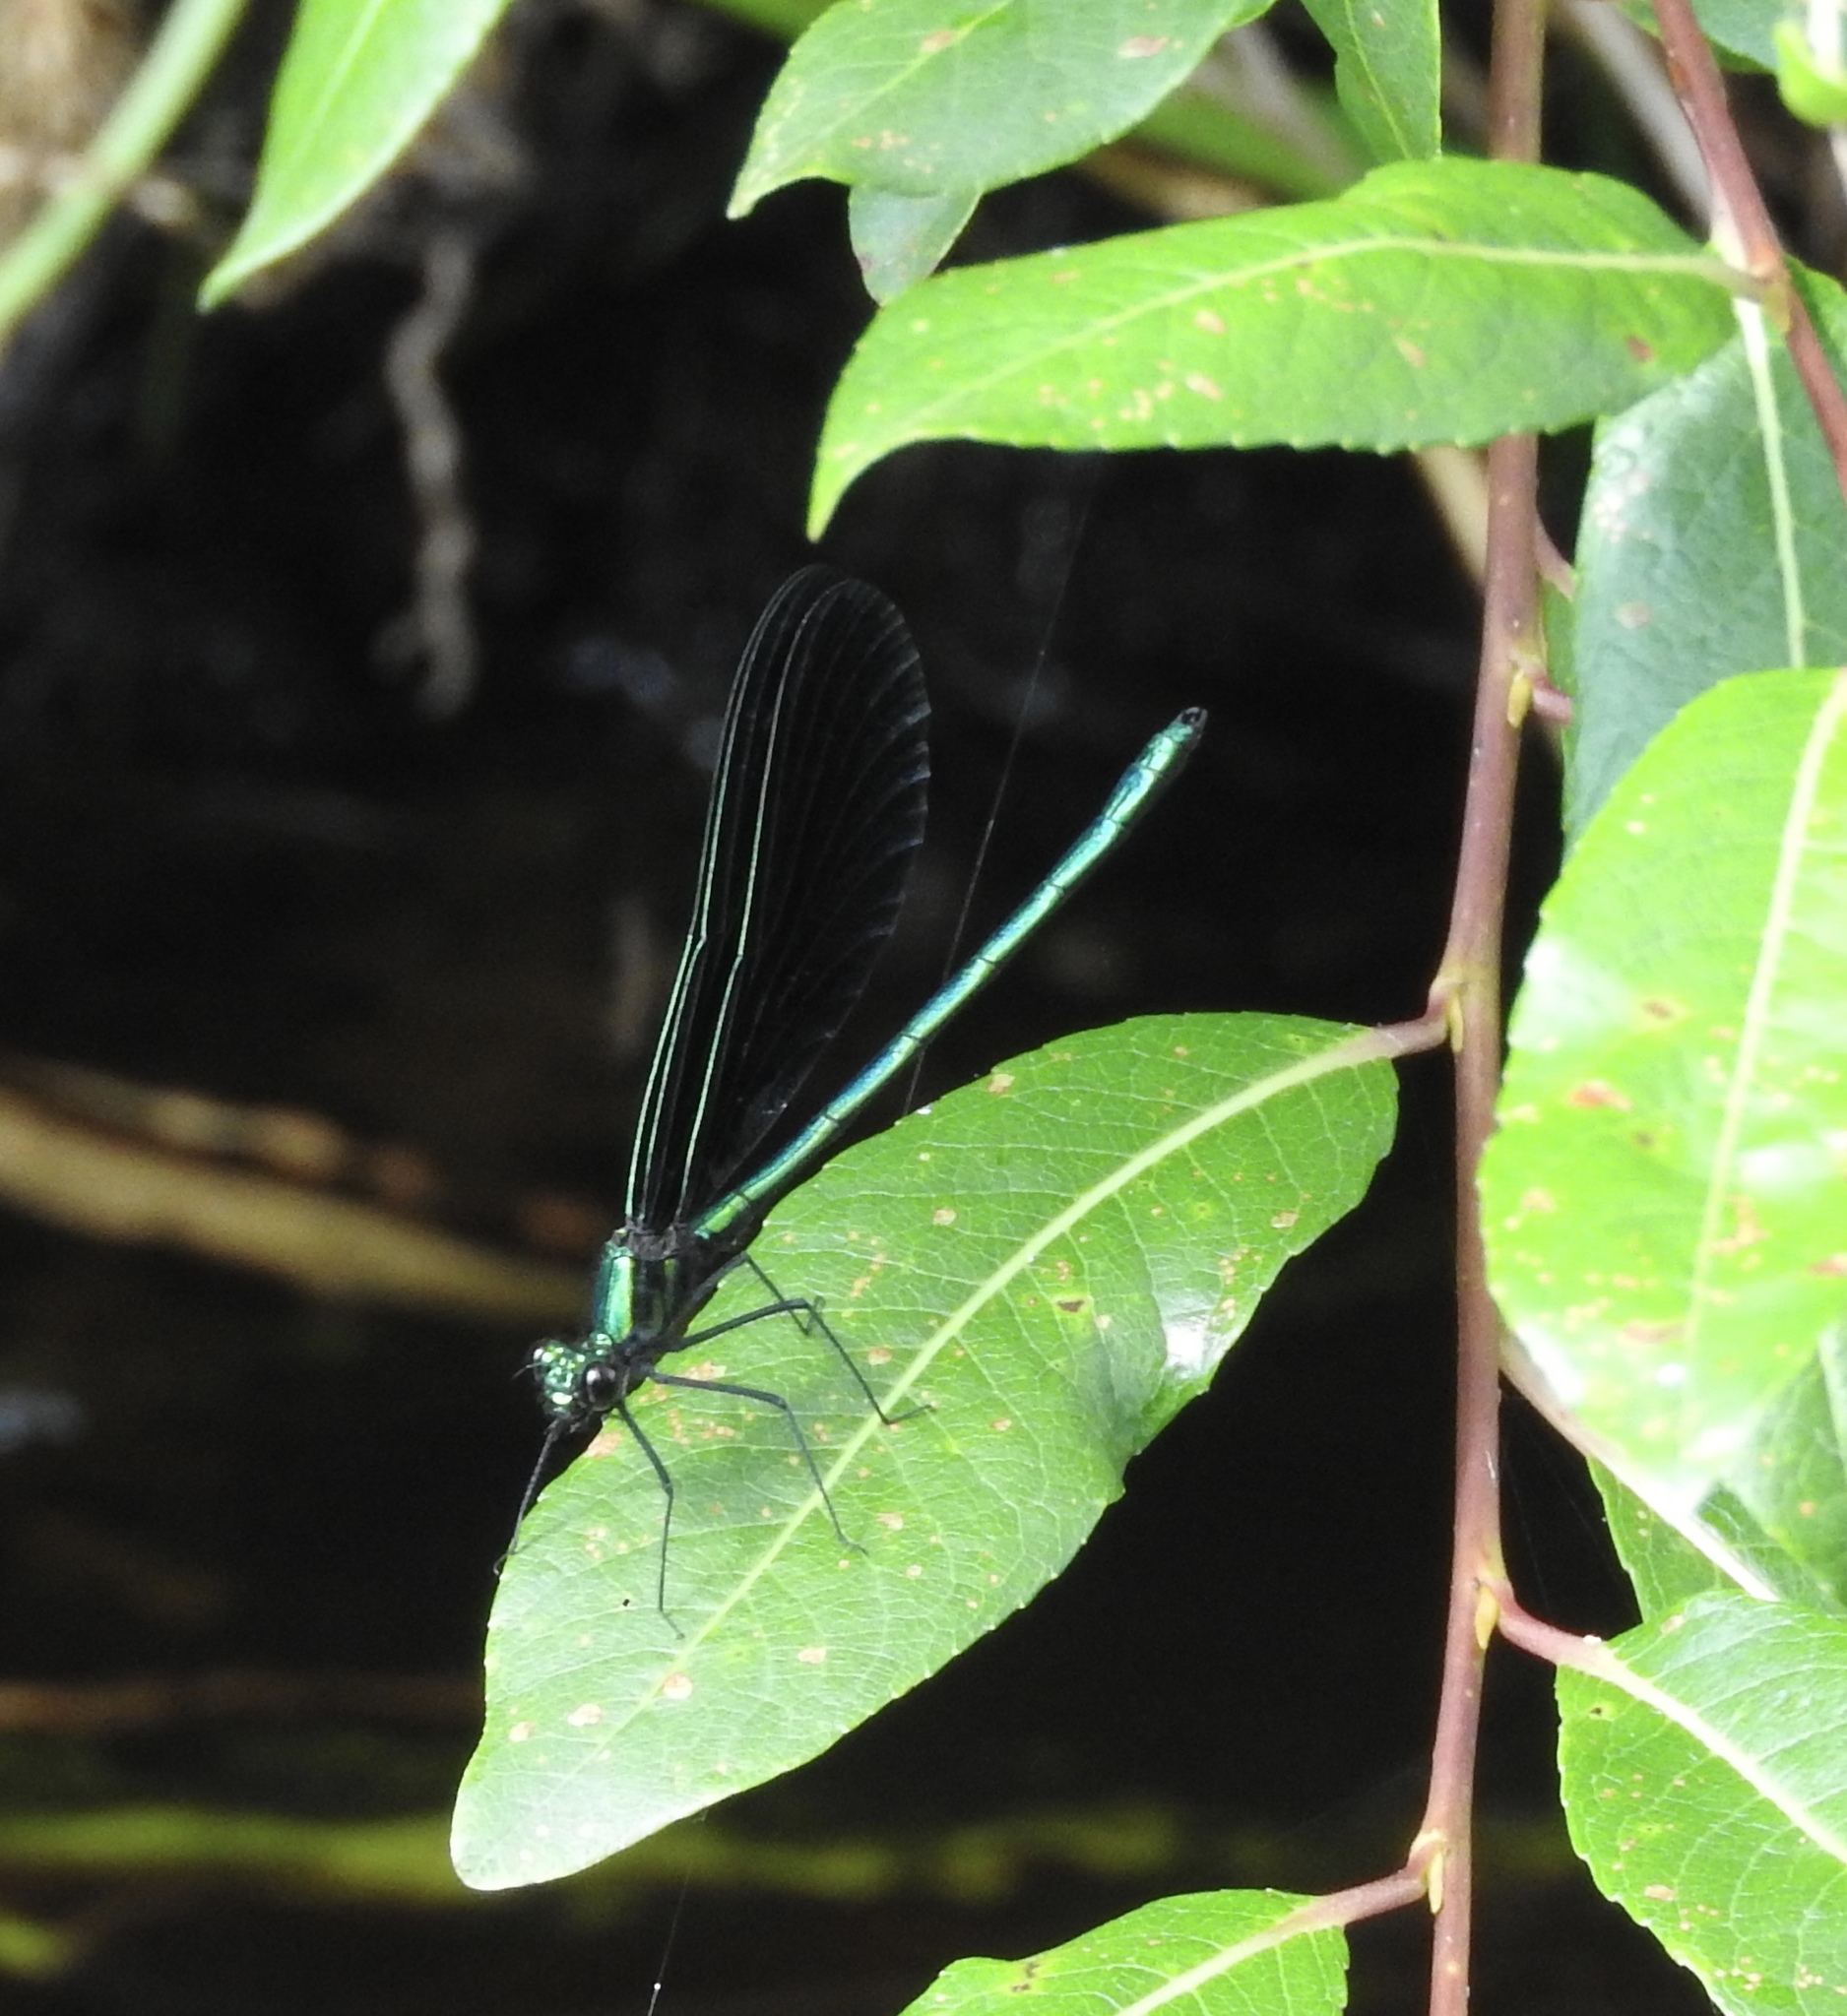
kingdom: Animalia
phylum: Arthropoda
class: Insecta
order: Odonata
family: Calopterygidae
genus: Calopteryx
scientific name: Calopteryx maculata
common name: Ebony jewelwing
